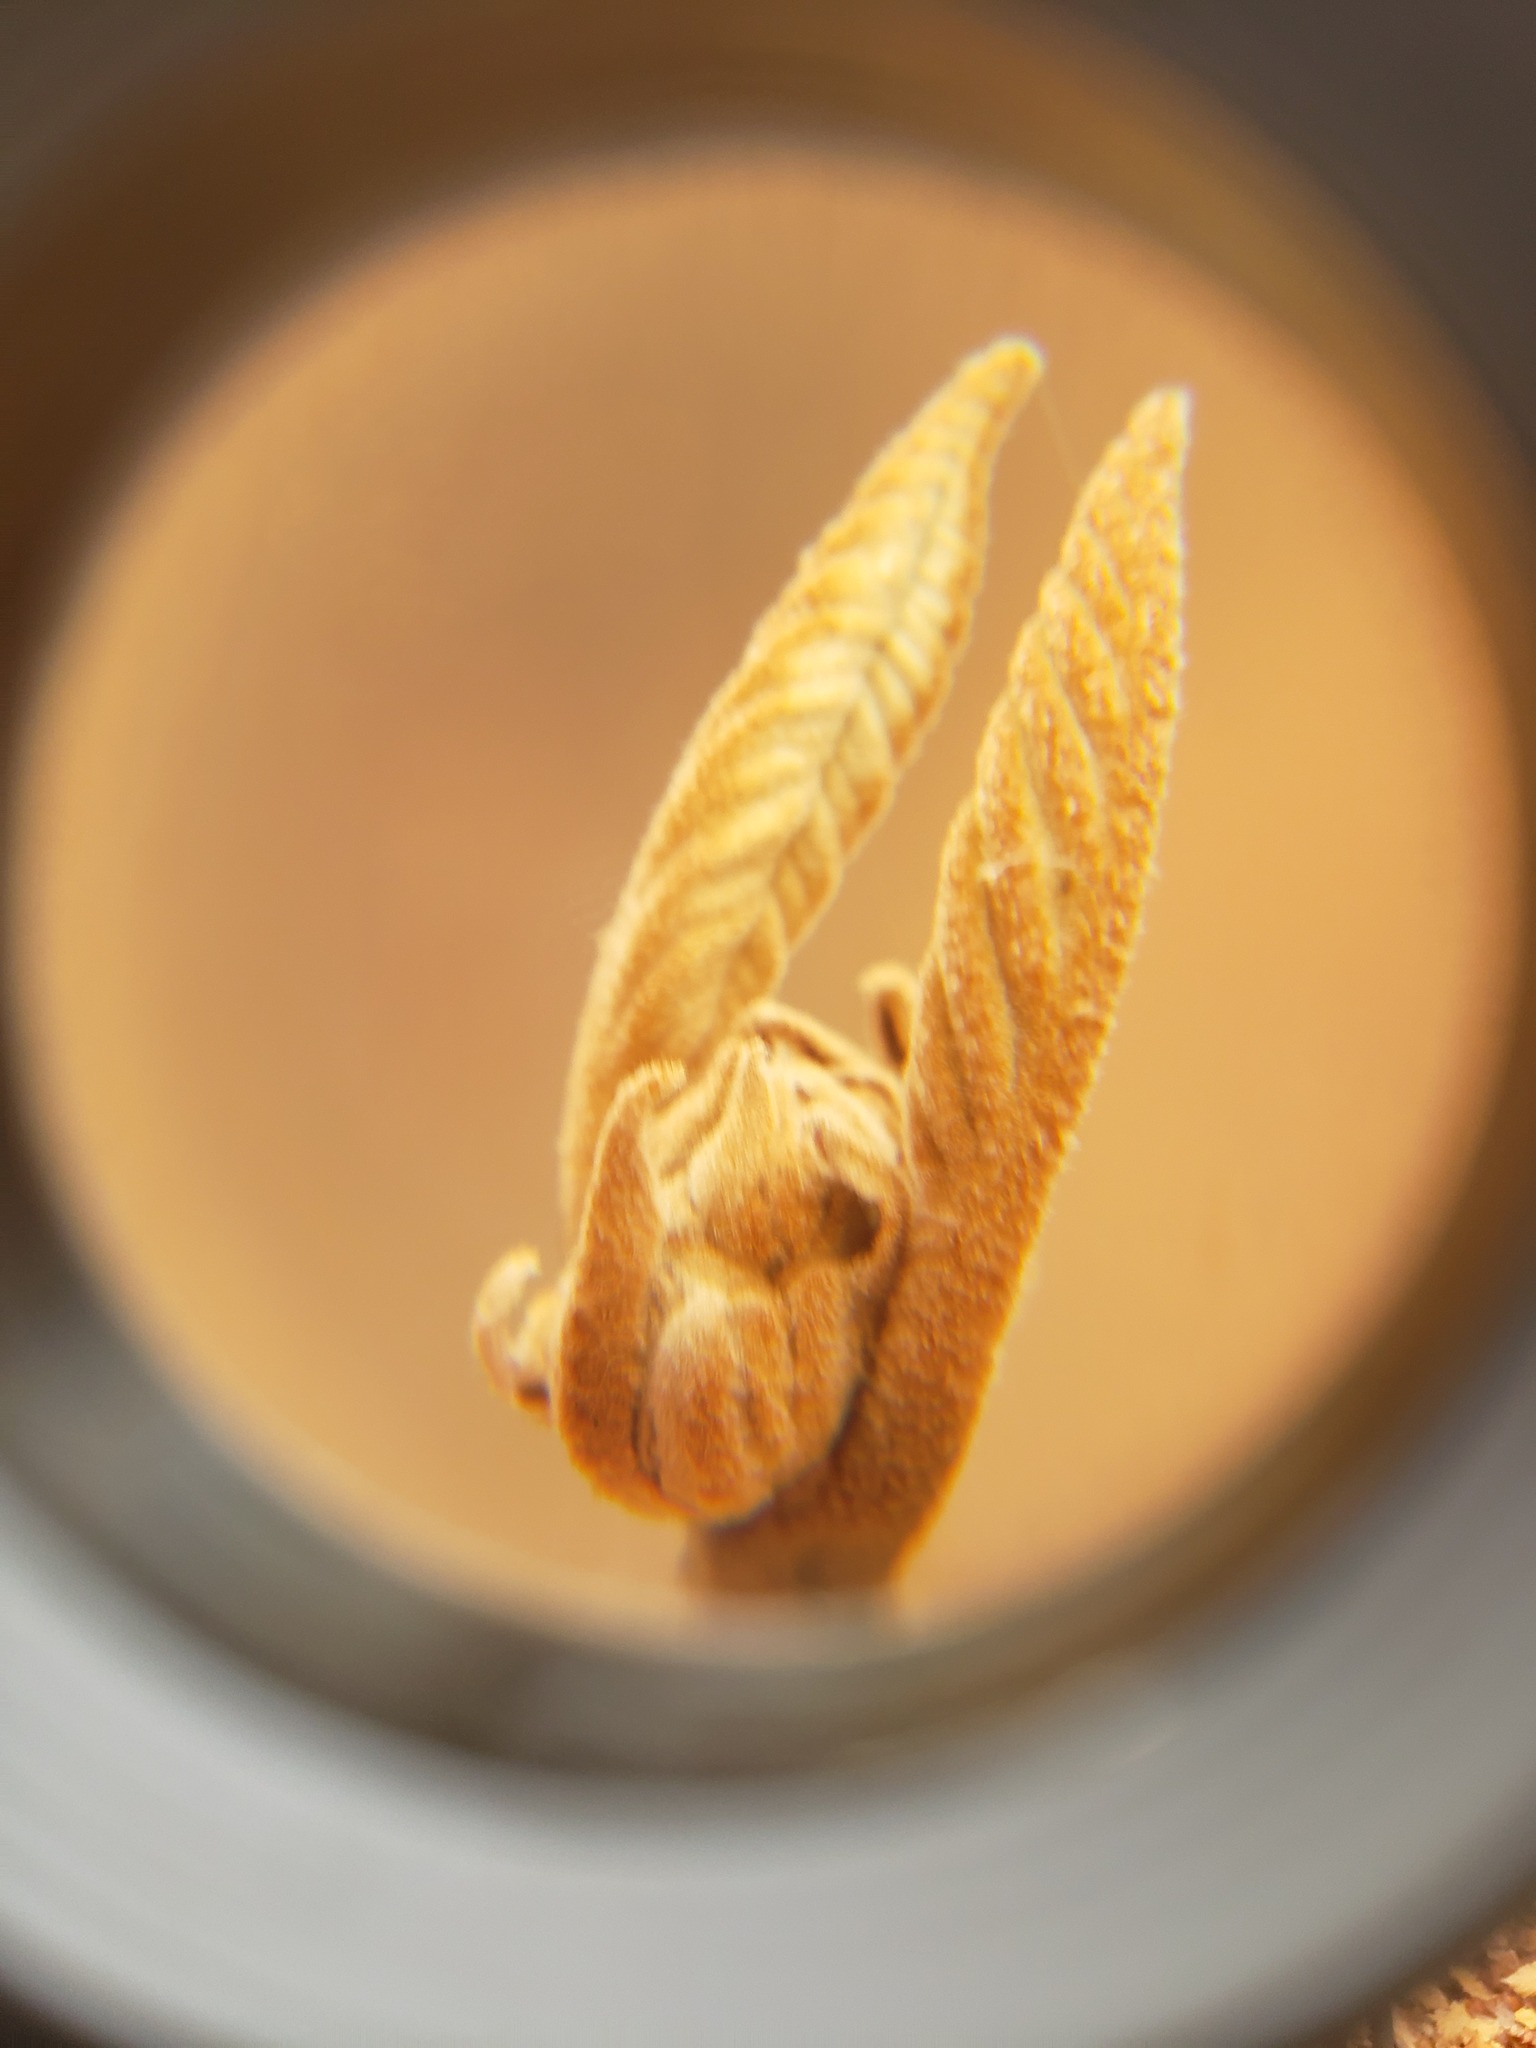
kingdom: Plantae
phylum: Tracheophyta
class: Magnoliopsida
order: Dipsacales
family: Viburnaceae
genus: Viburnum
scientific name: Viburnum lantanoides
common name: Hobblebush
